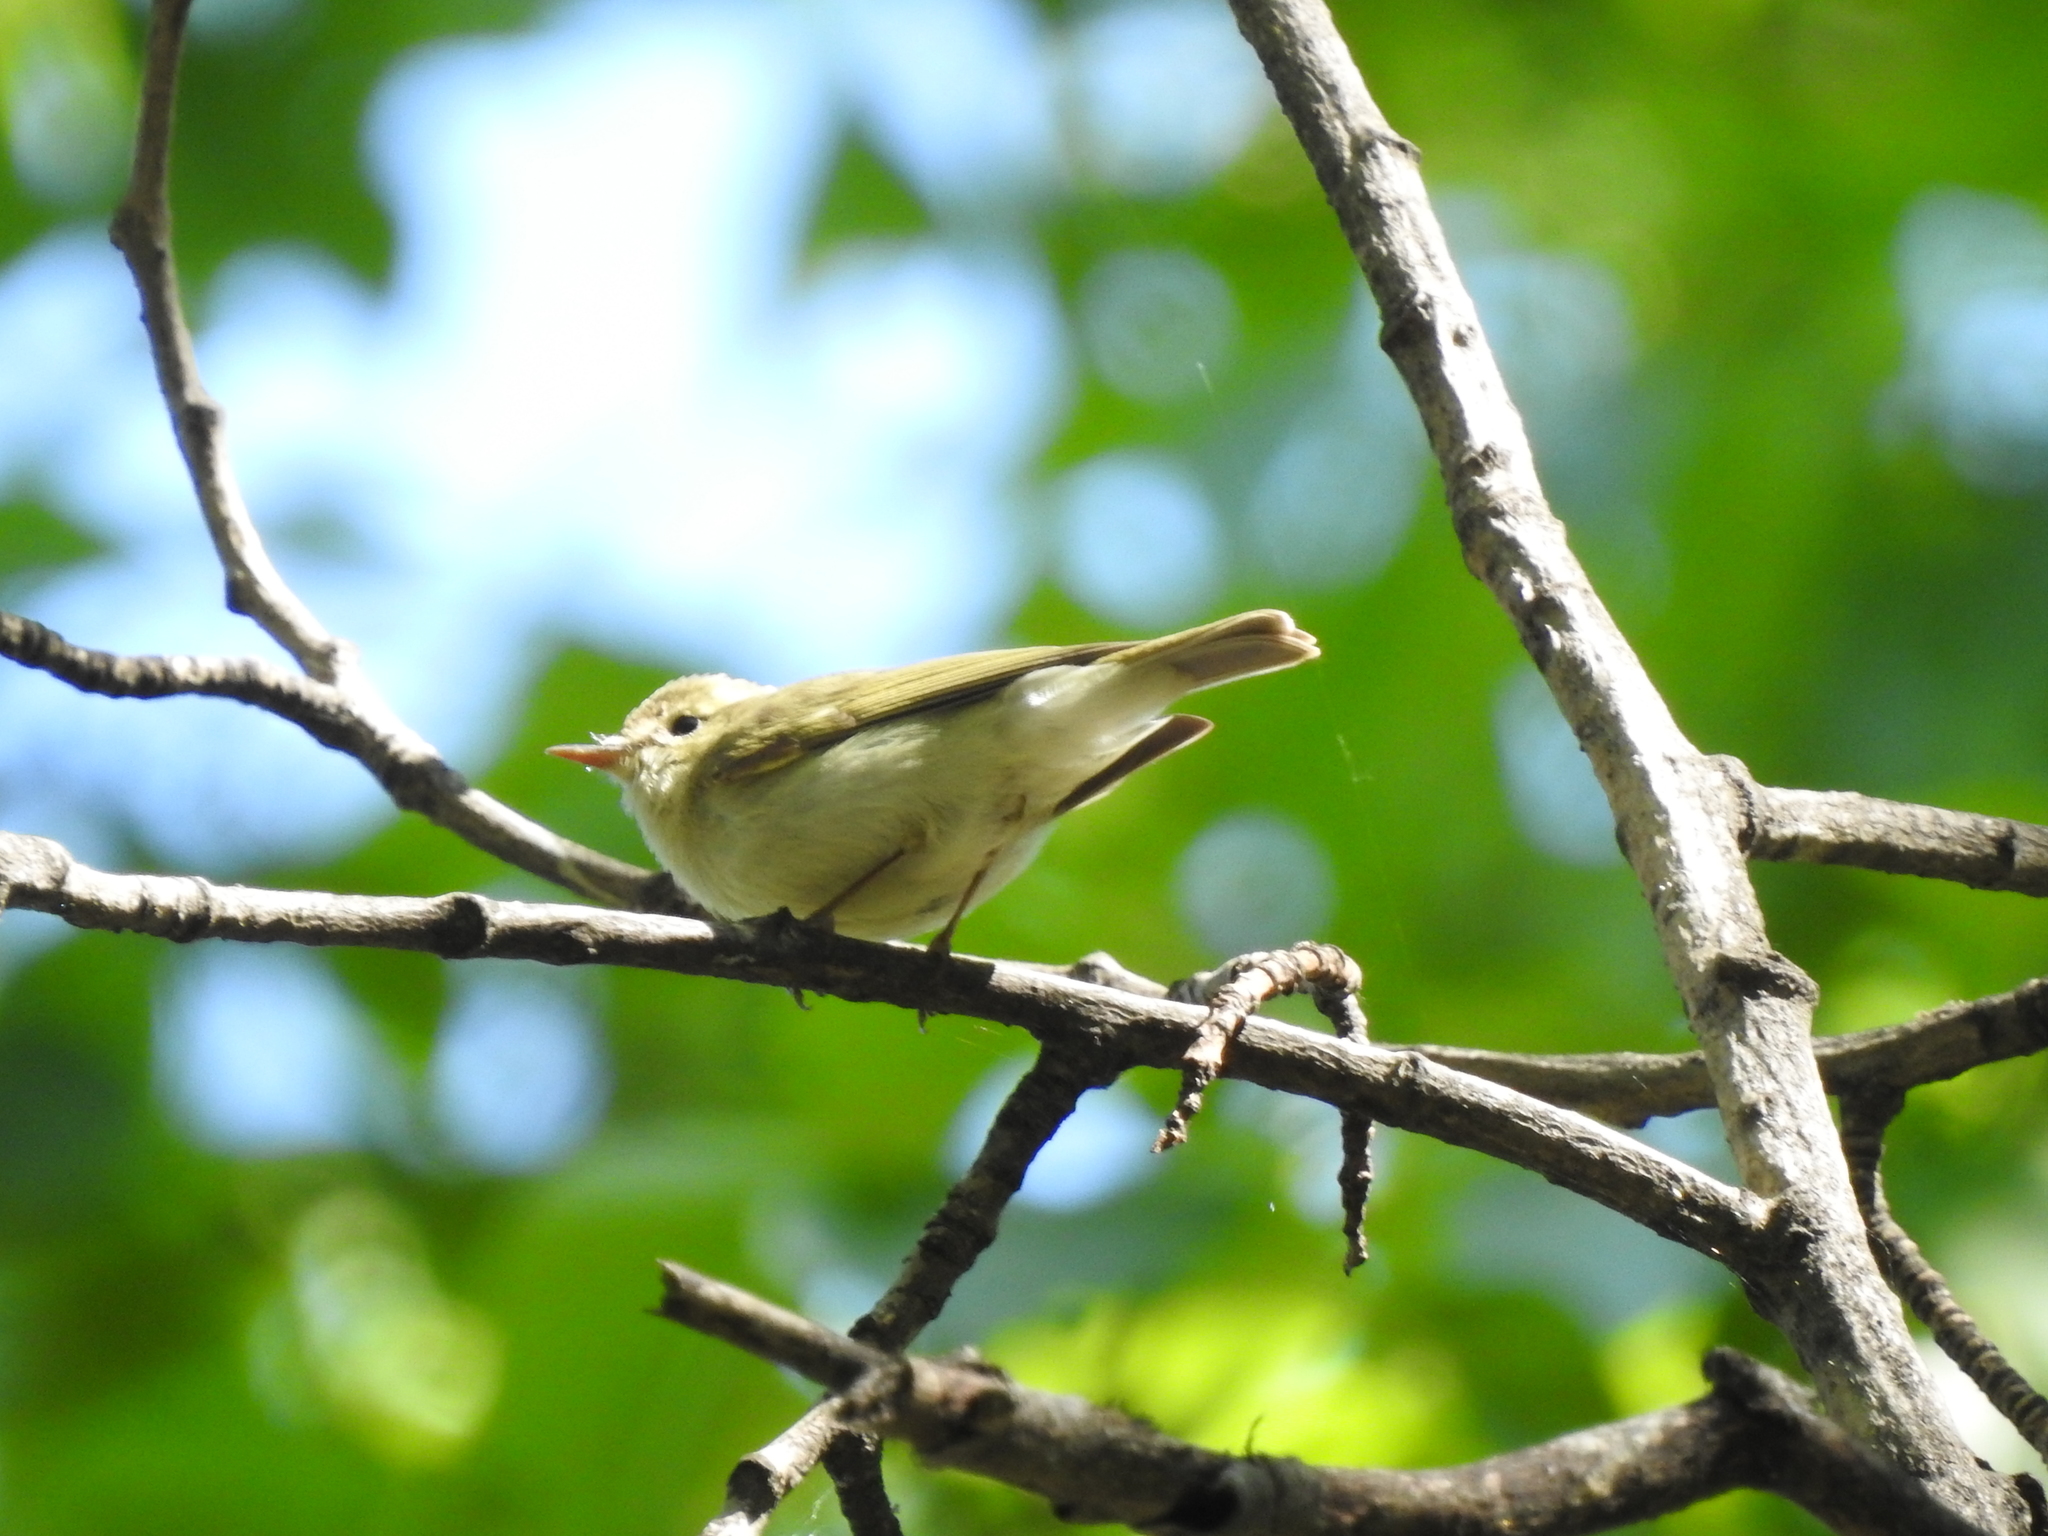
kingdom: Animalia
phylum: Chordata
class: Aves
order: Passeriformes
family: Phylloscopidae
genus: Phylloscopus
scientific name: Phylloscopus trochiloides
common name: Greenish warbler
